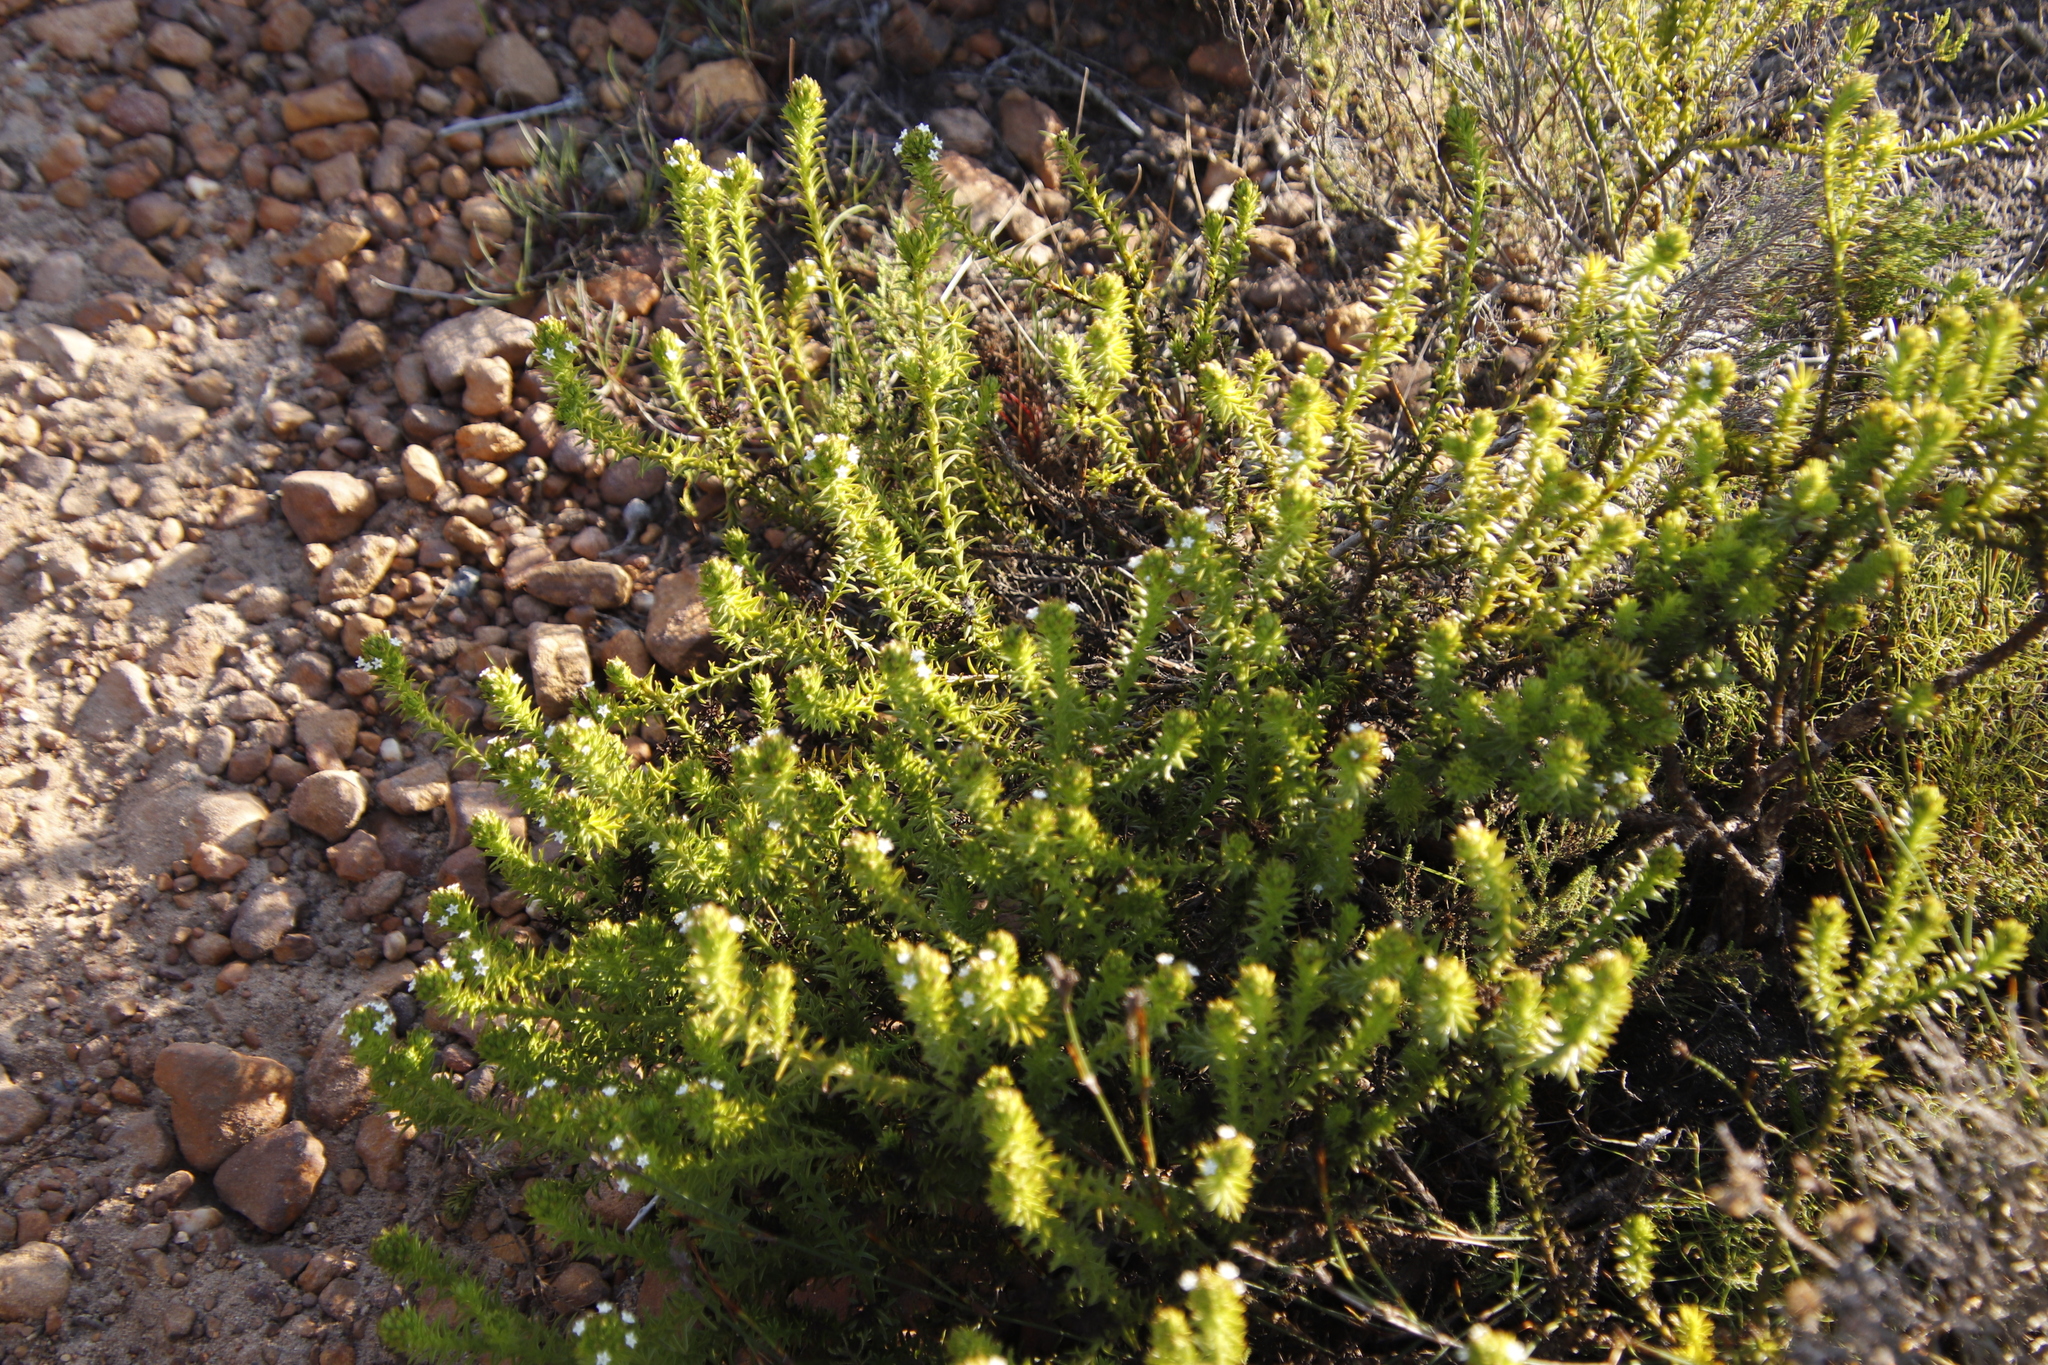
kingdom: Plantae
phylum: Tracheophyta
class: Magnoliopsida
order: Santalales
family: Thesiaceae
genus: Thesium
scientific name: Thesium viridifolium
